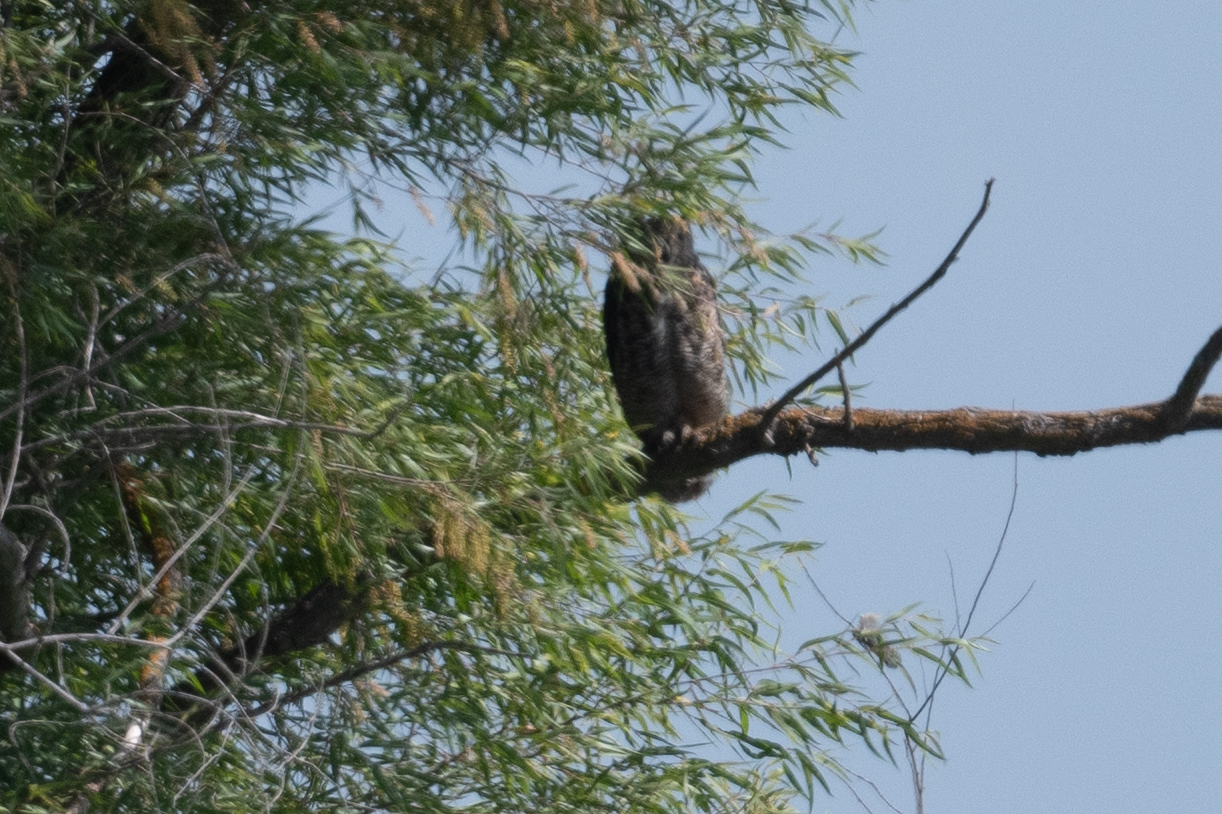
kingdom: Animalia
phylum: Chordata
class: Aves
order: Strigiformes
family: Strigidae
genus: Bubo
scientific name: Bubo virginianus
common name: Great horned owl
